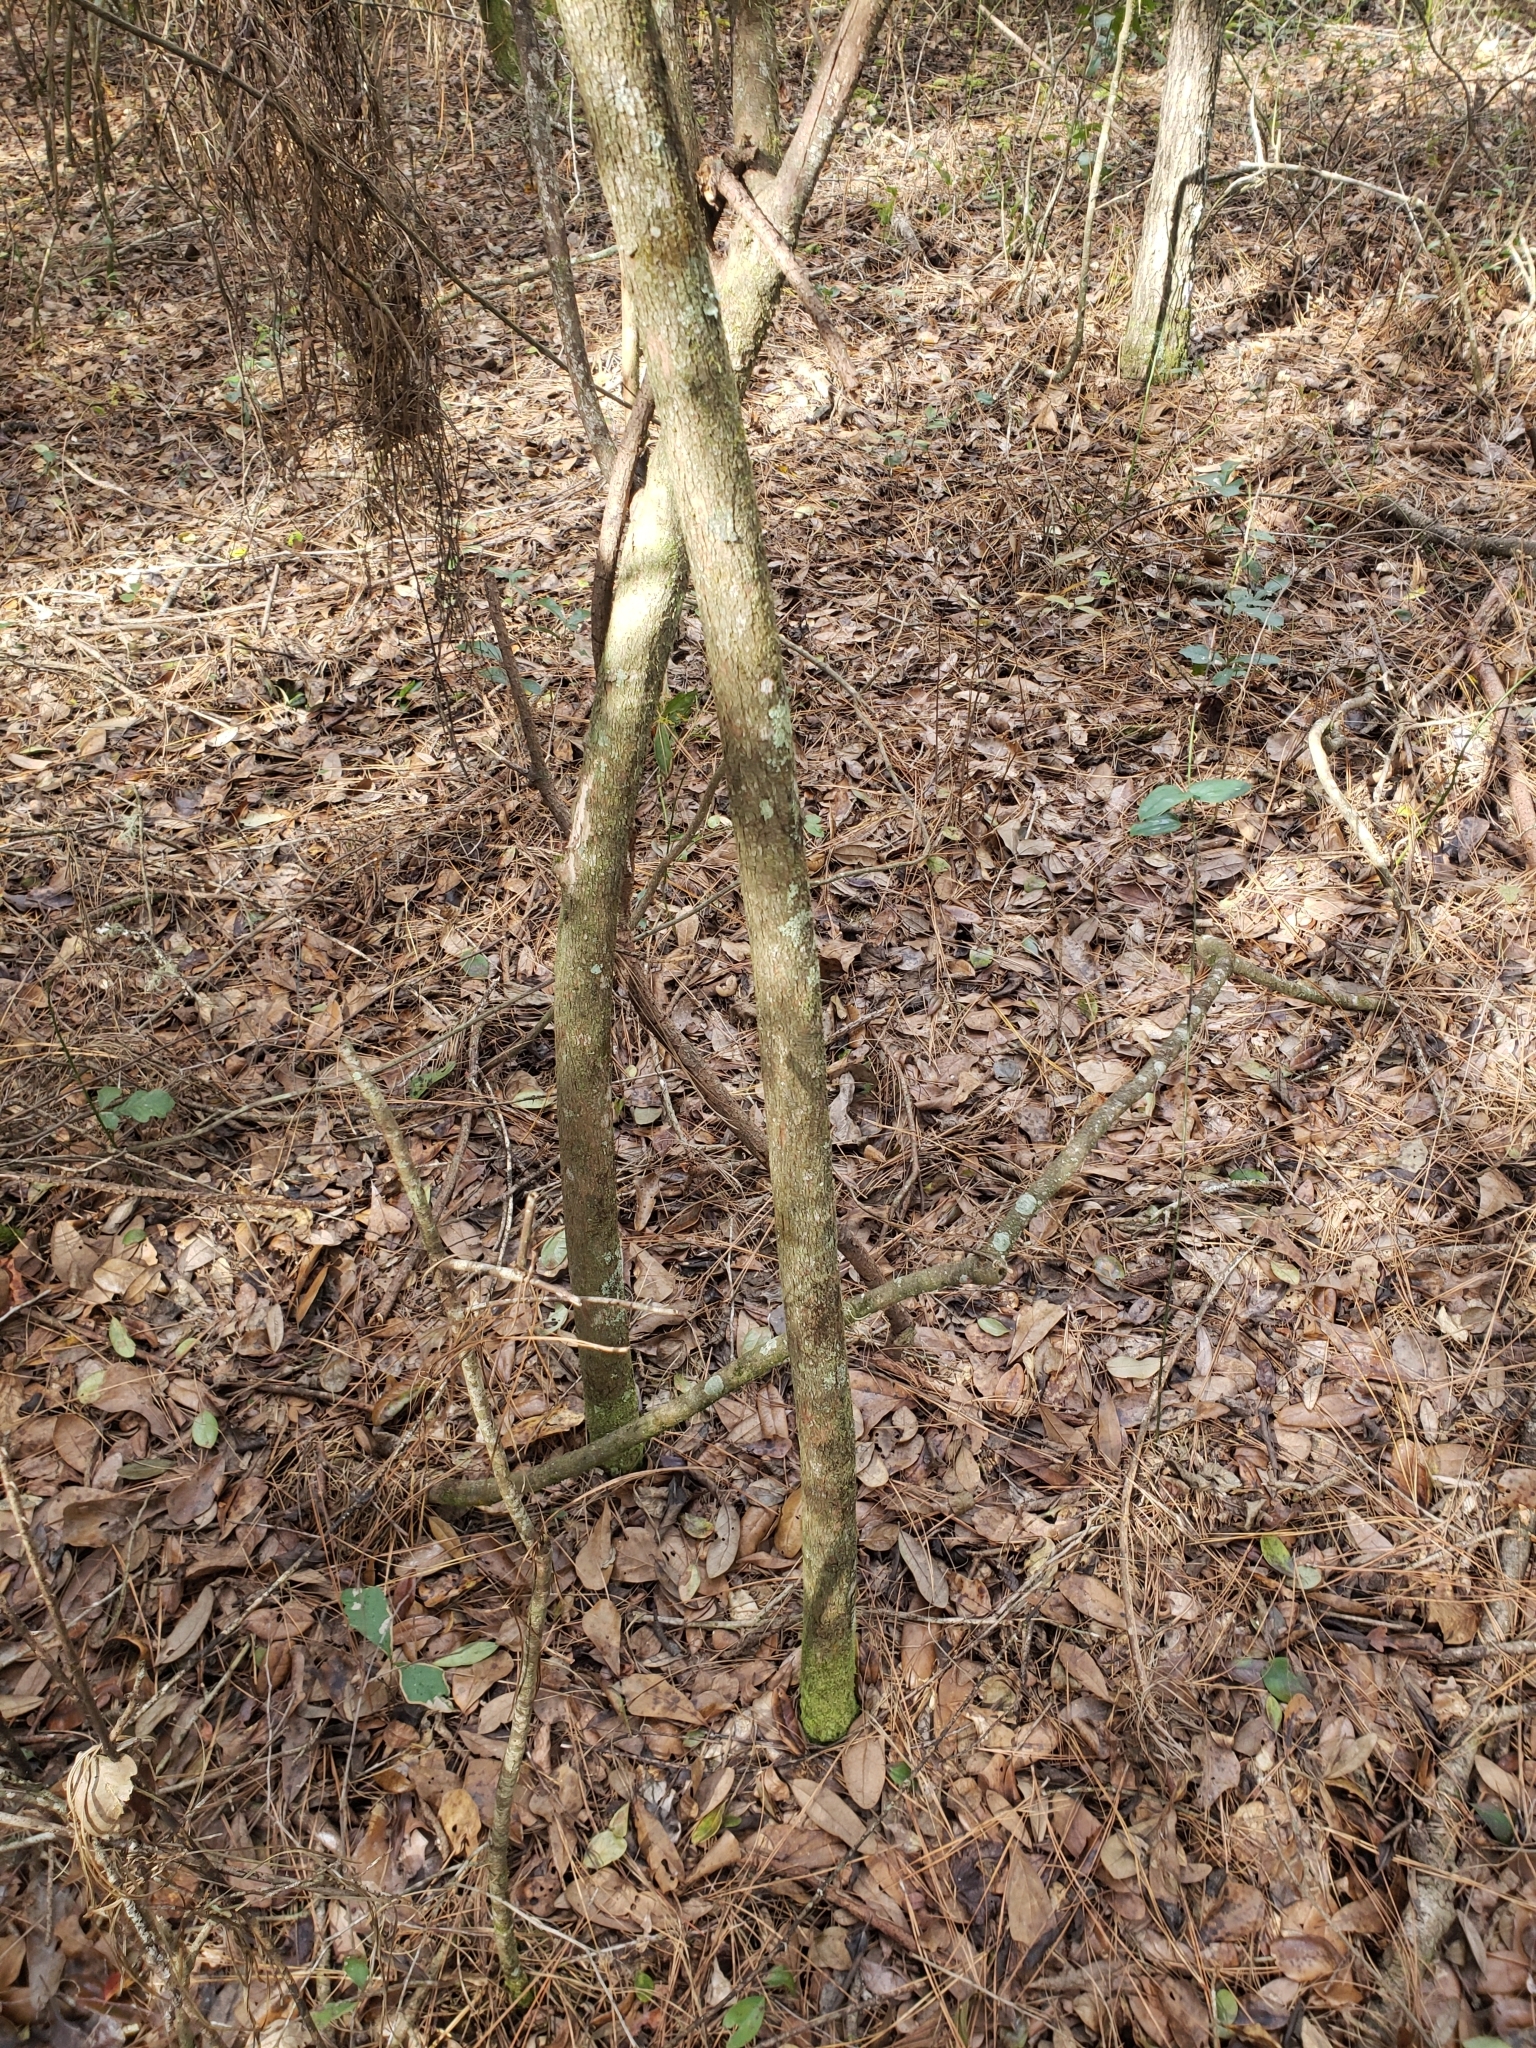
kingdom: Plantae
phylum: Tracheophyta
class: Magnoliopsida
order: Ericales
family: Ericaceae
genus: Vaccinium
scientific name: Vaccinium arboreum
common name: Farkleberry
